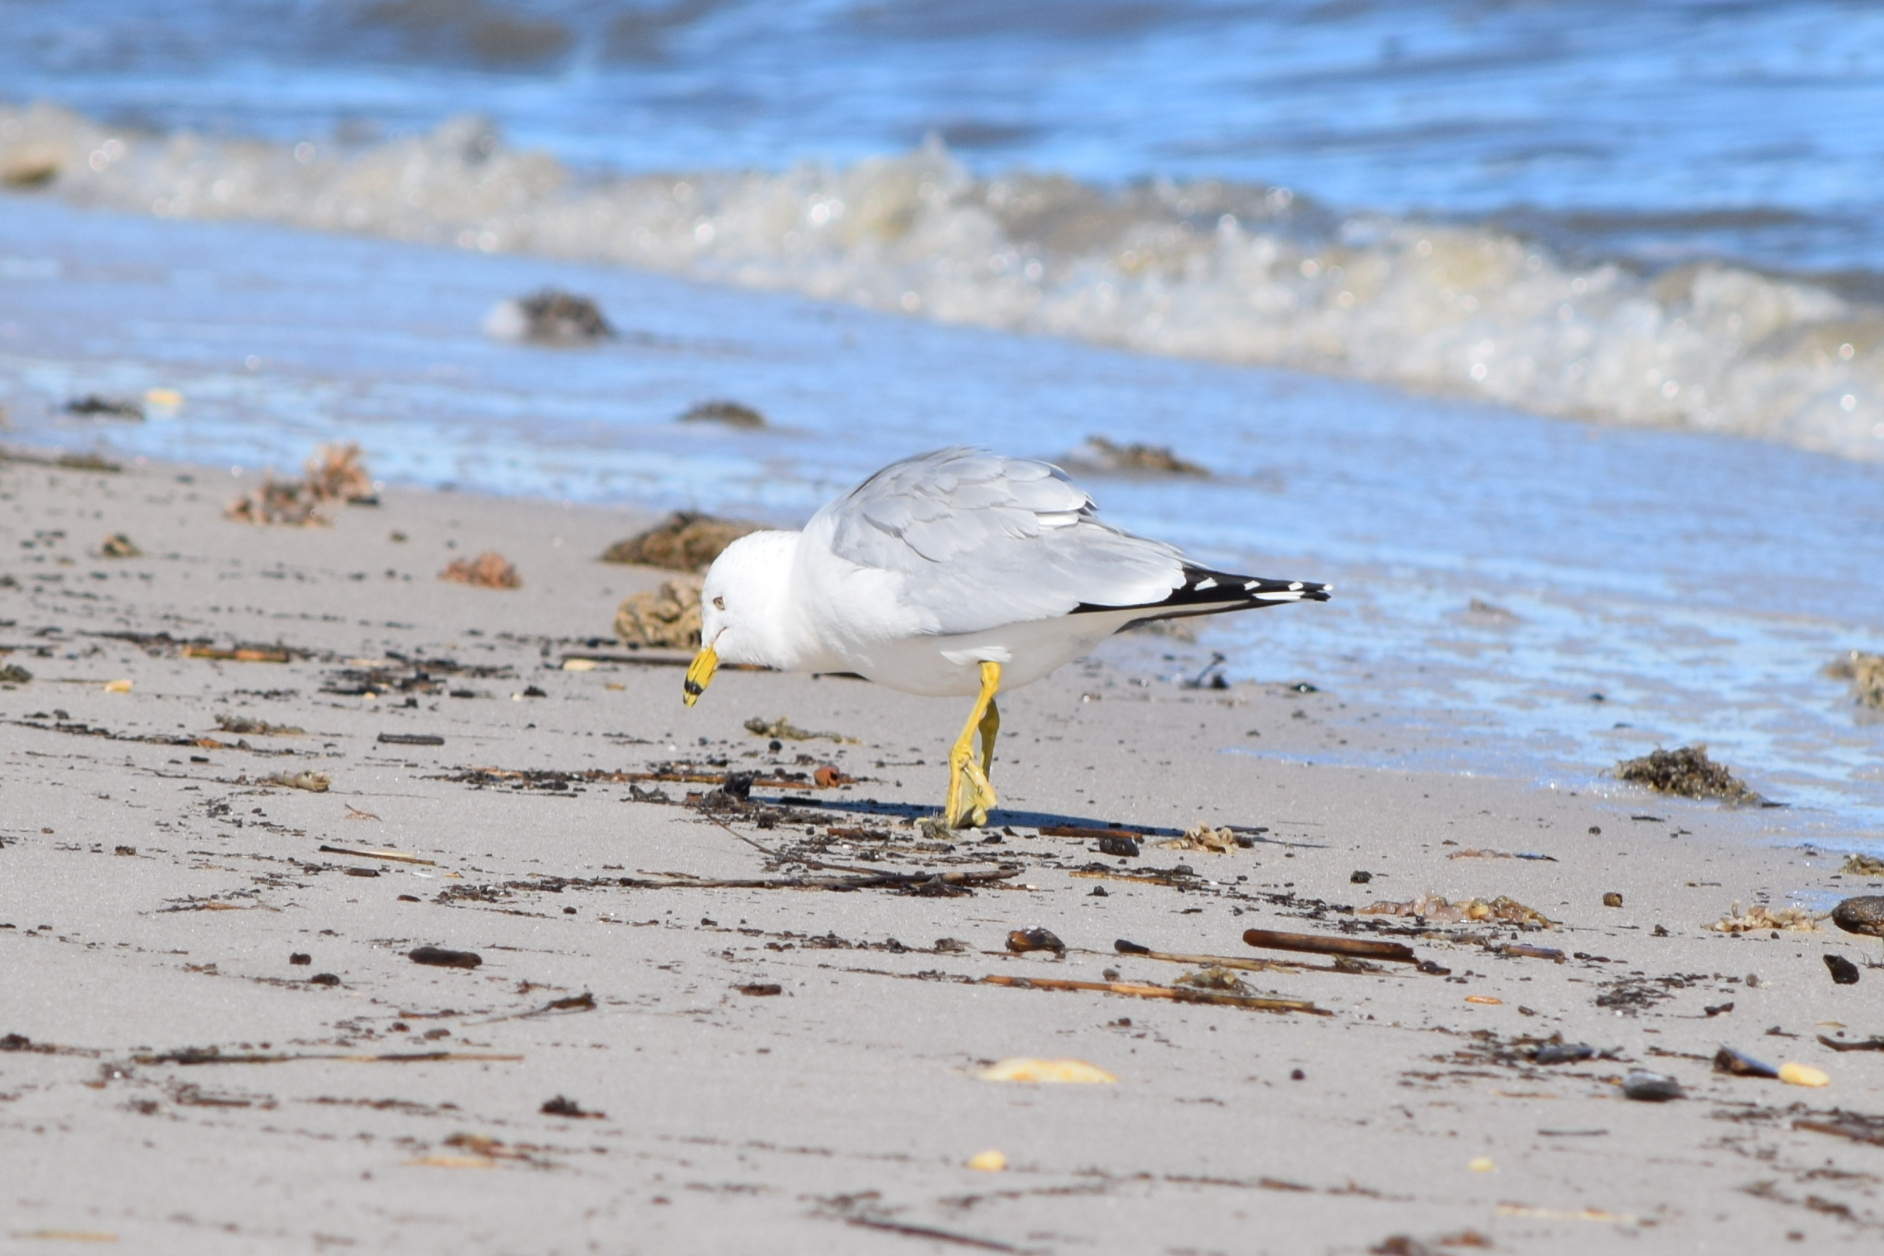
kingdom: Animalia
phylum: Chordata
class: Aves
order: Charadriiformes
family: Laridae
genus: Larus
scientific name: Larus delawarensis
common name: Ring-billed gull
